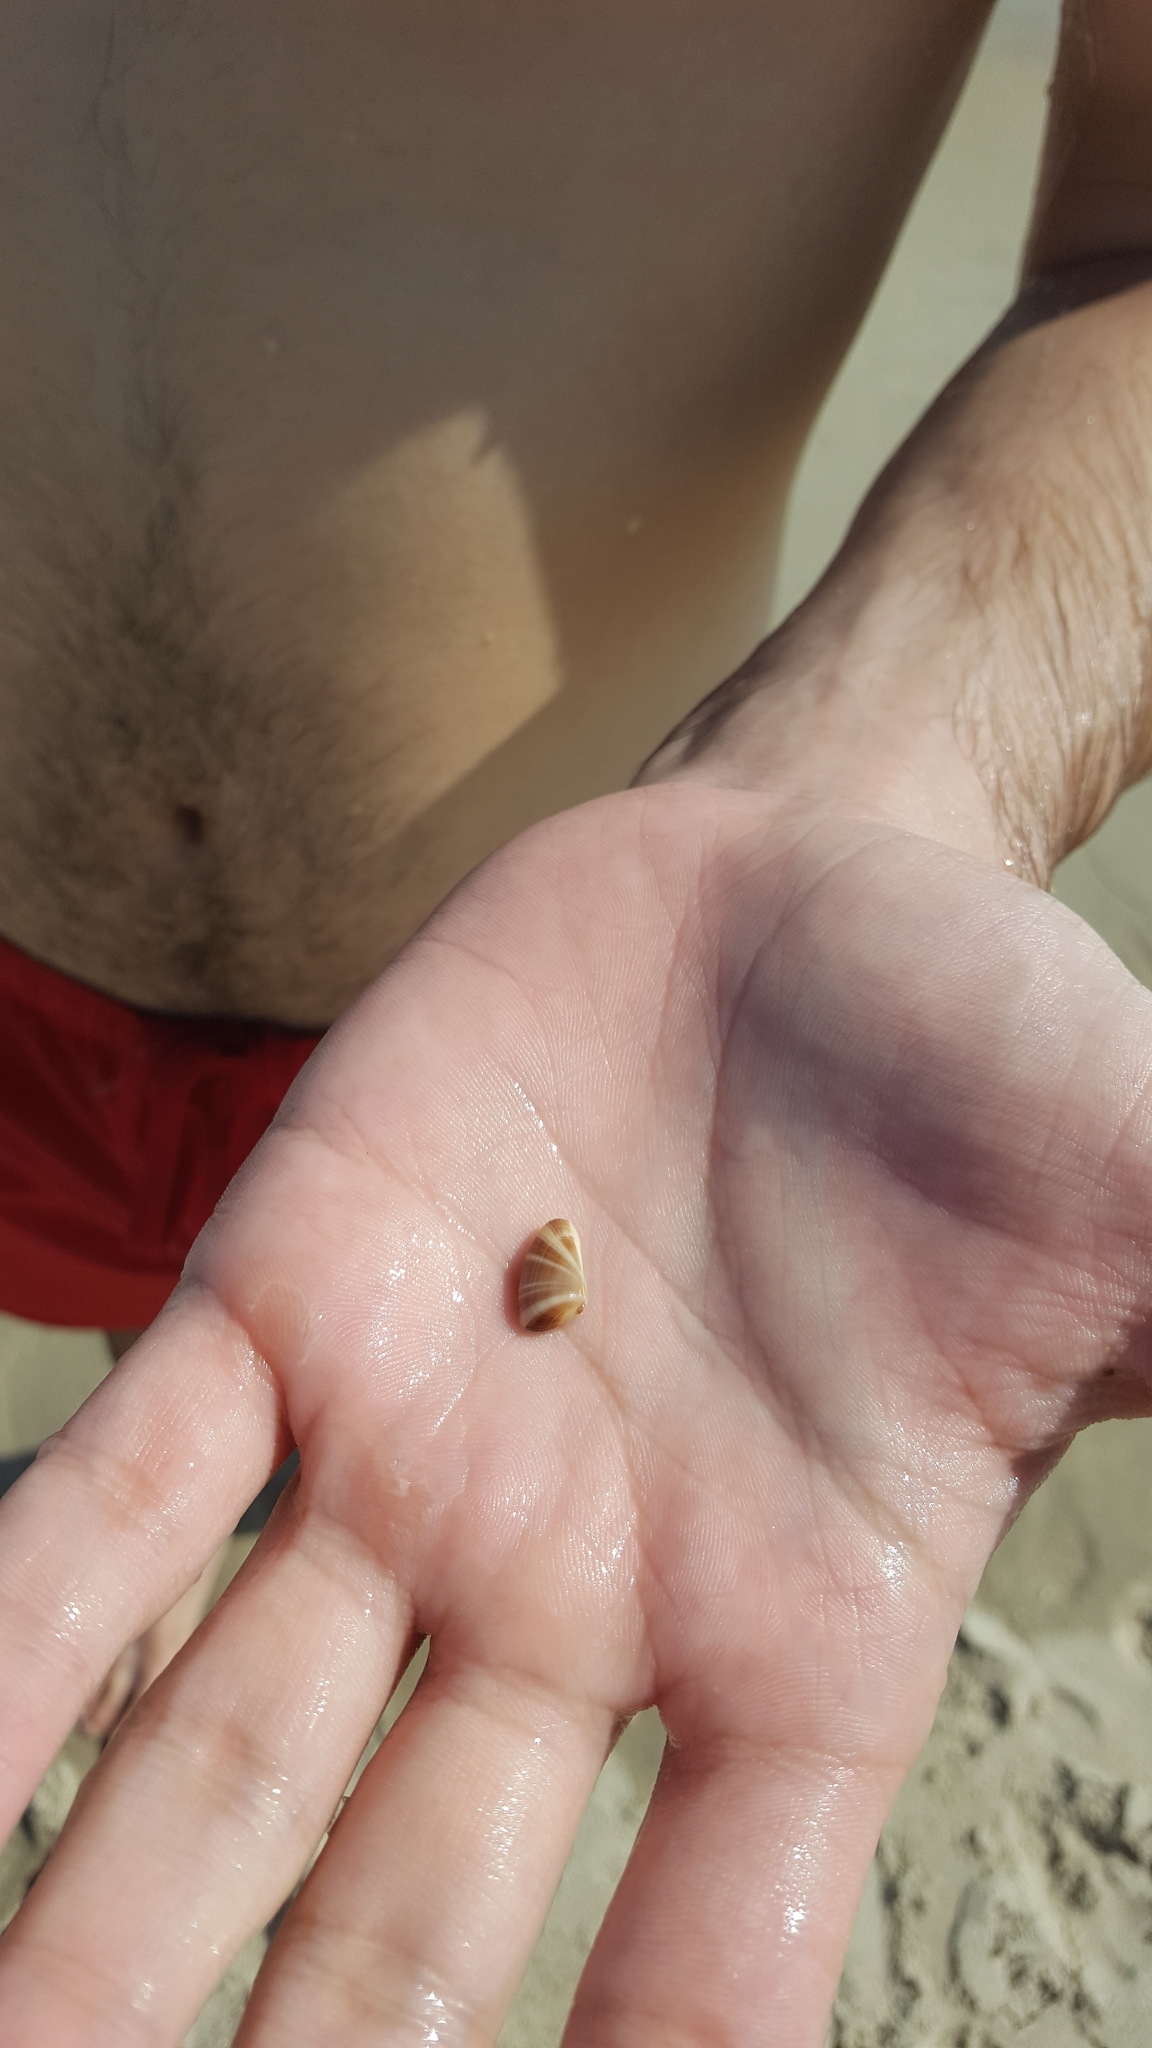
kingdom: Animalia
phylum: Mollusca
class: Bivalvia
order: Cardiida
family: Donacidae
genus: Donax
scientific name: Donax variabilis
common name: Butterfly shell
